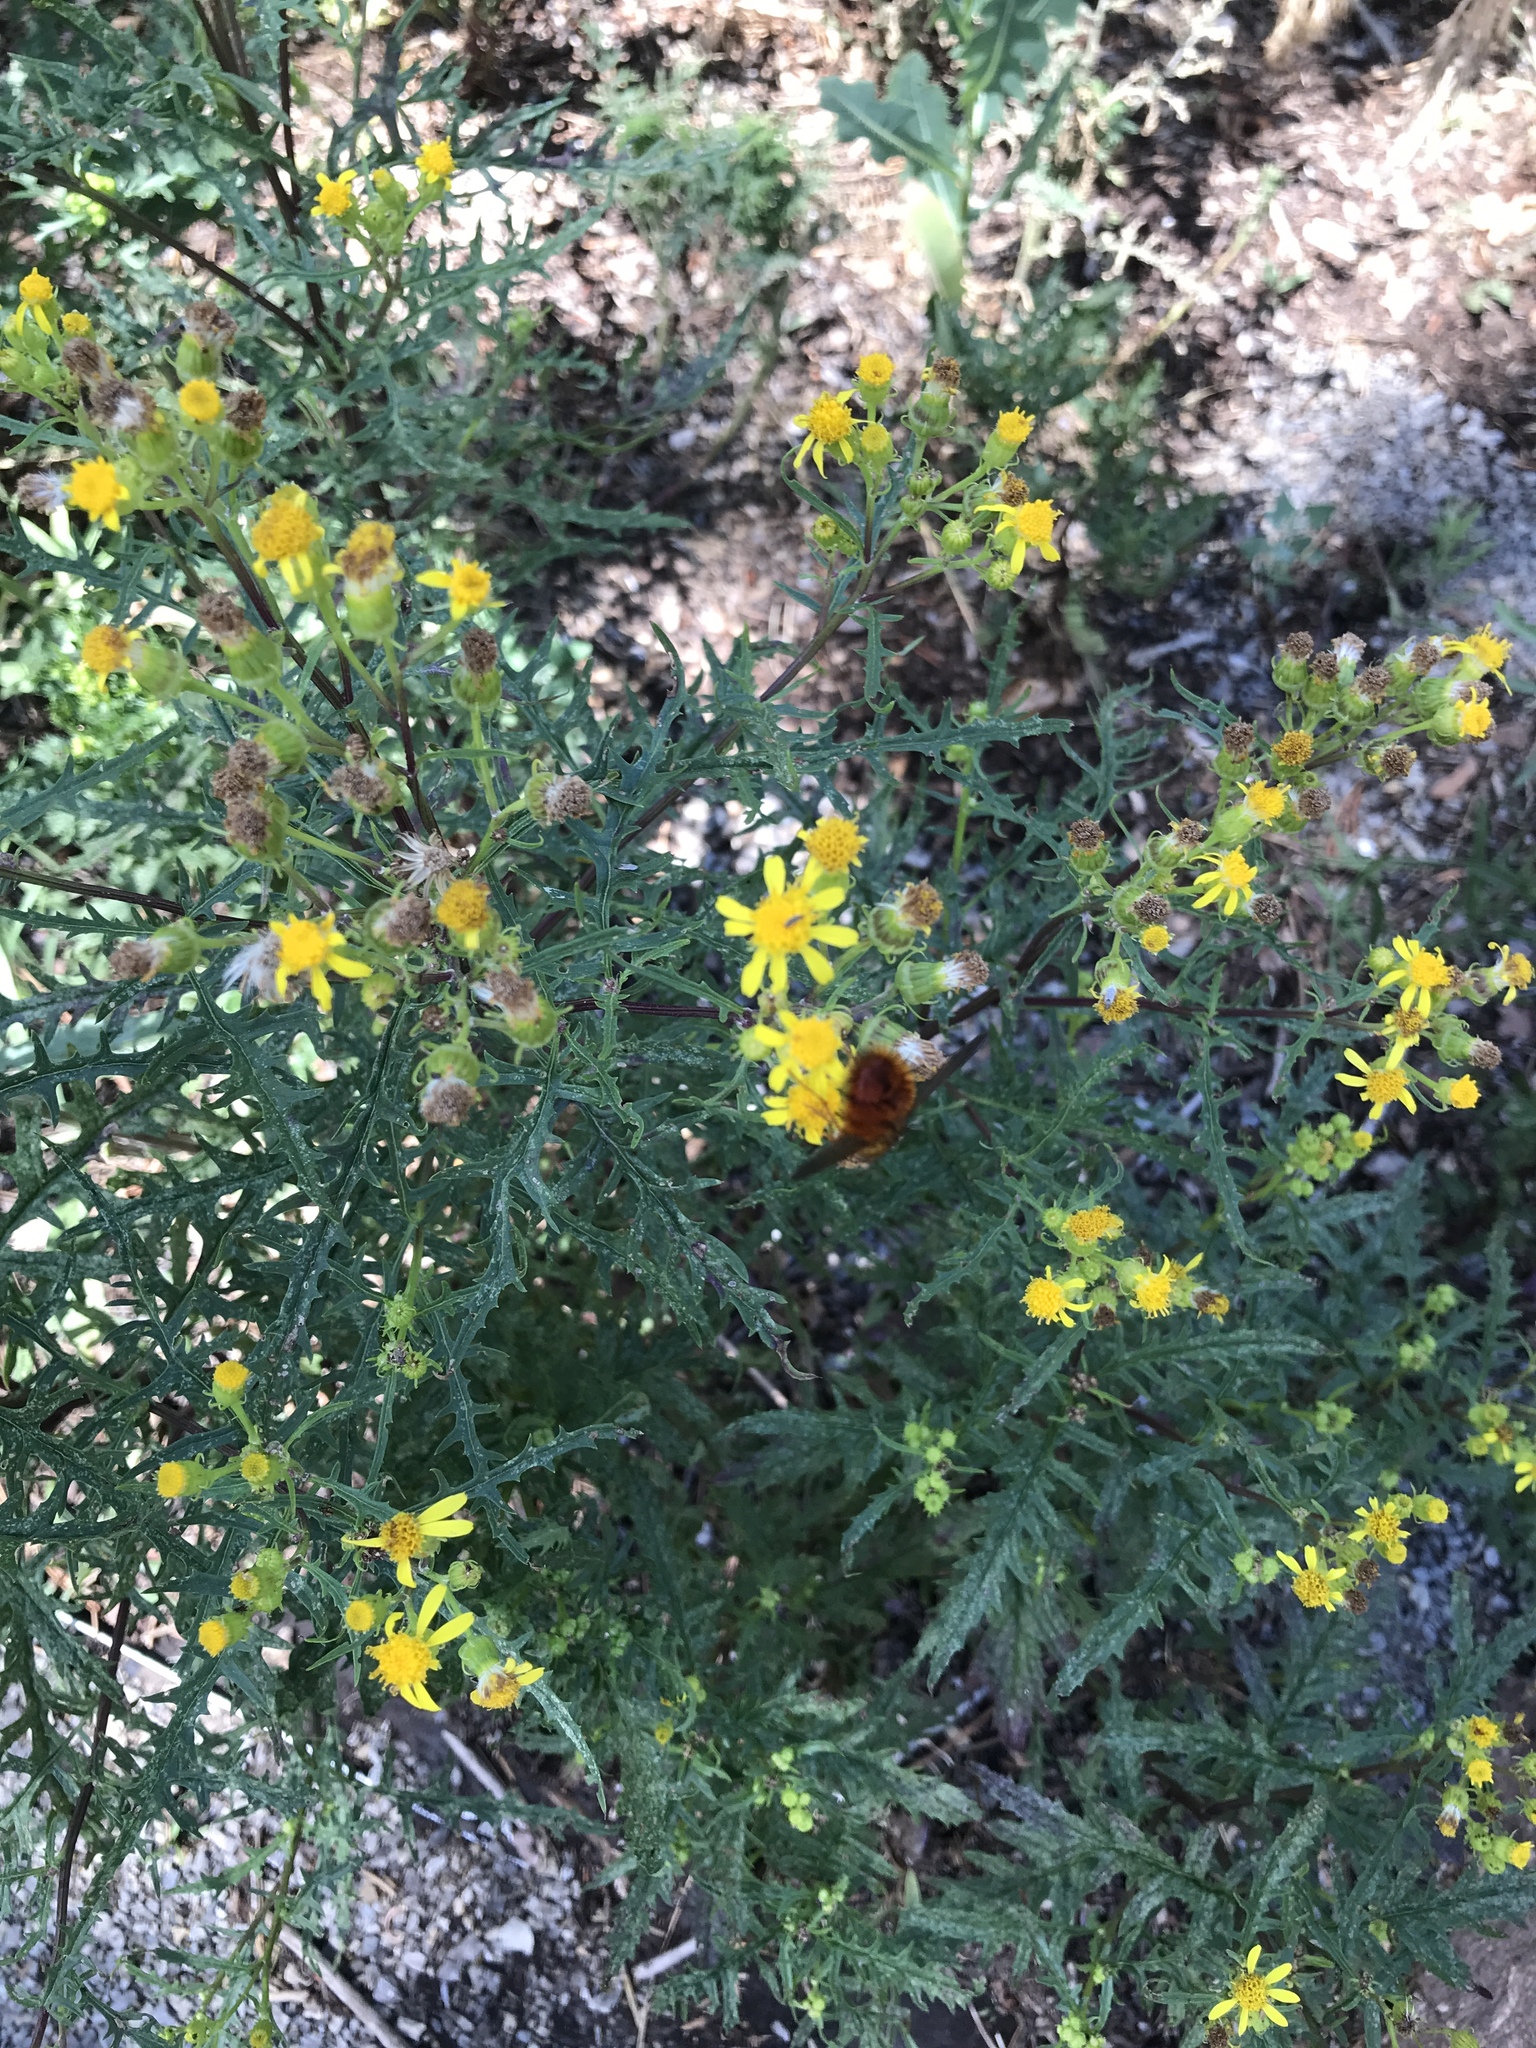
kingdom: Animalia
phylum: Arthropoda
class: Insecta
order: Diptera
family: Tachinidae
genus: Adejeania
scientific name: Adejeania vexatrix
